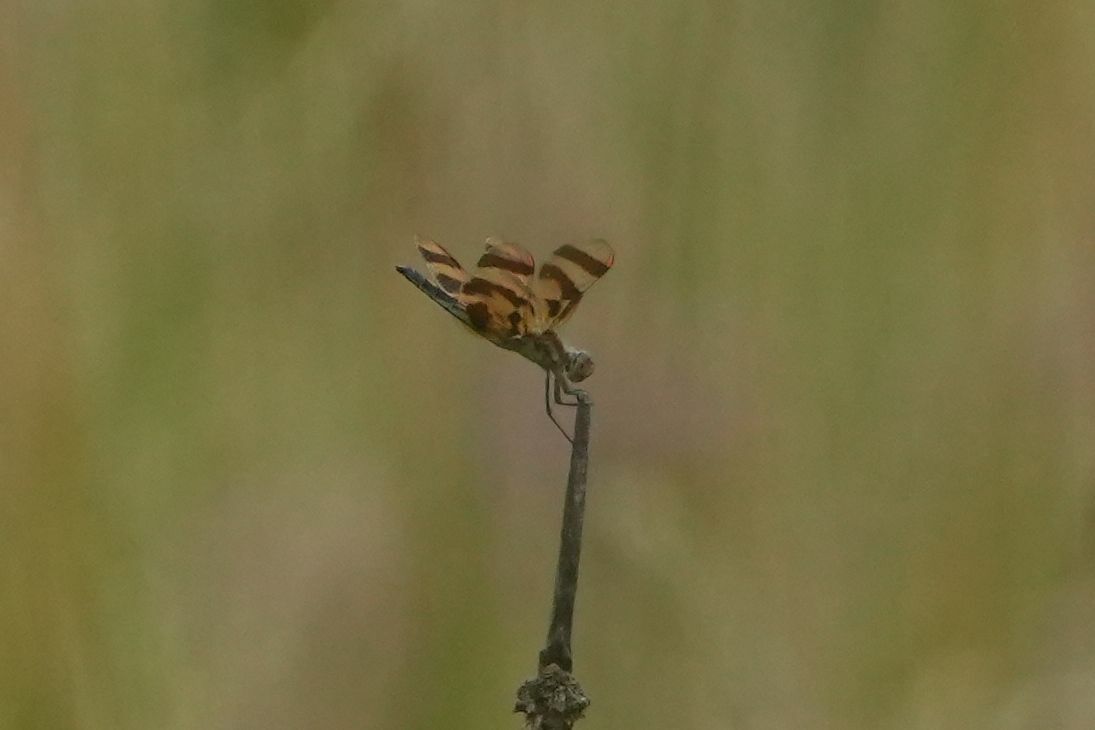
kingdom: Animalia
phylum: Arthropoda
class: Insecta
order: Odonata
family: Libellulidae
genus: Celithemis
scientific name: Celithemis eponina
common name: Halloween pennant
